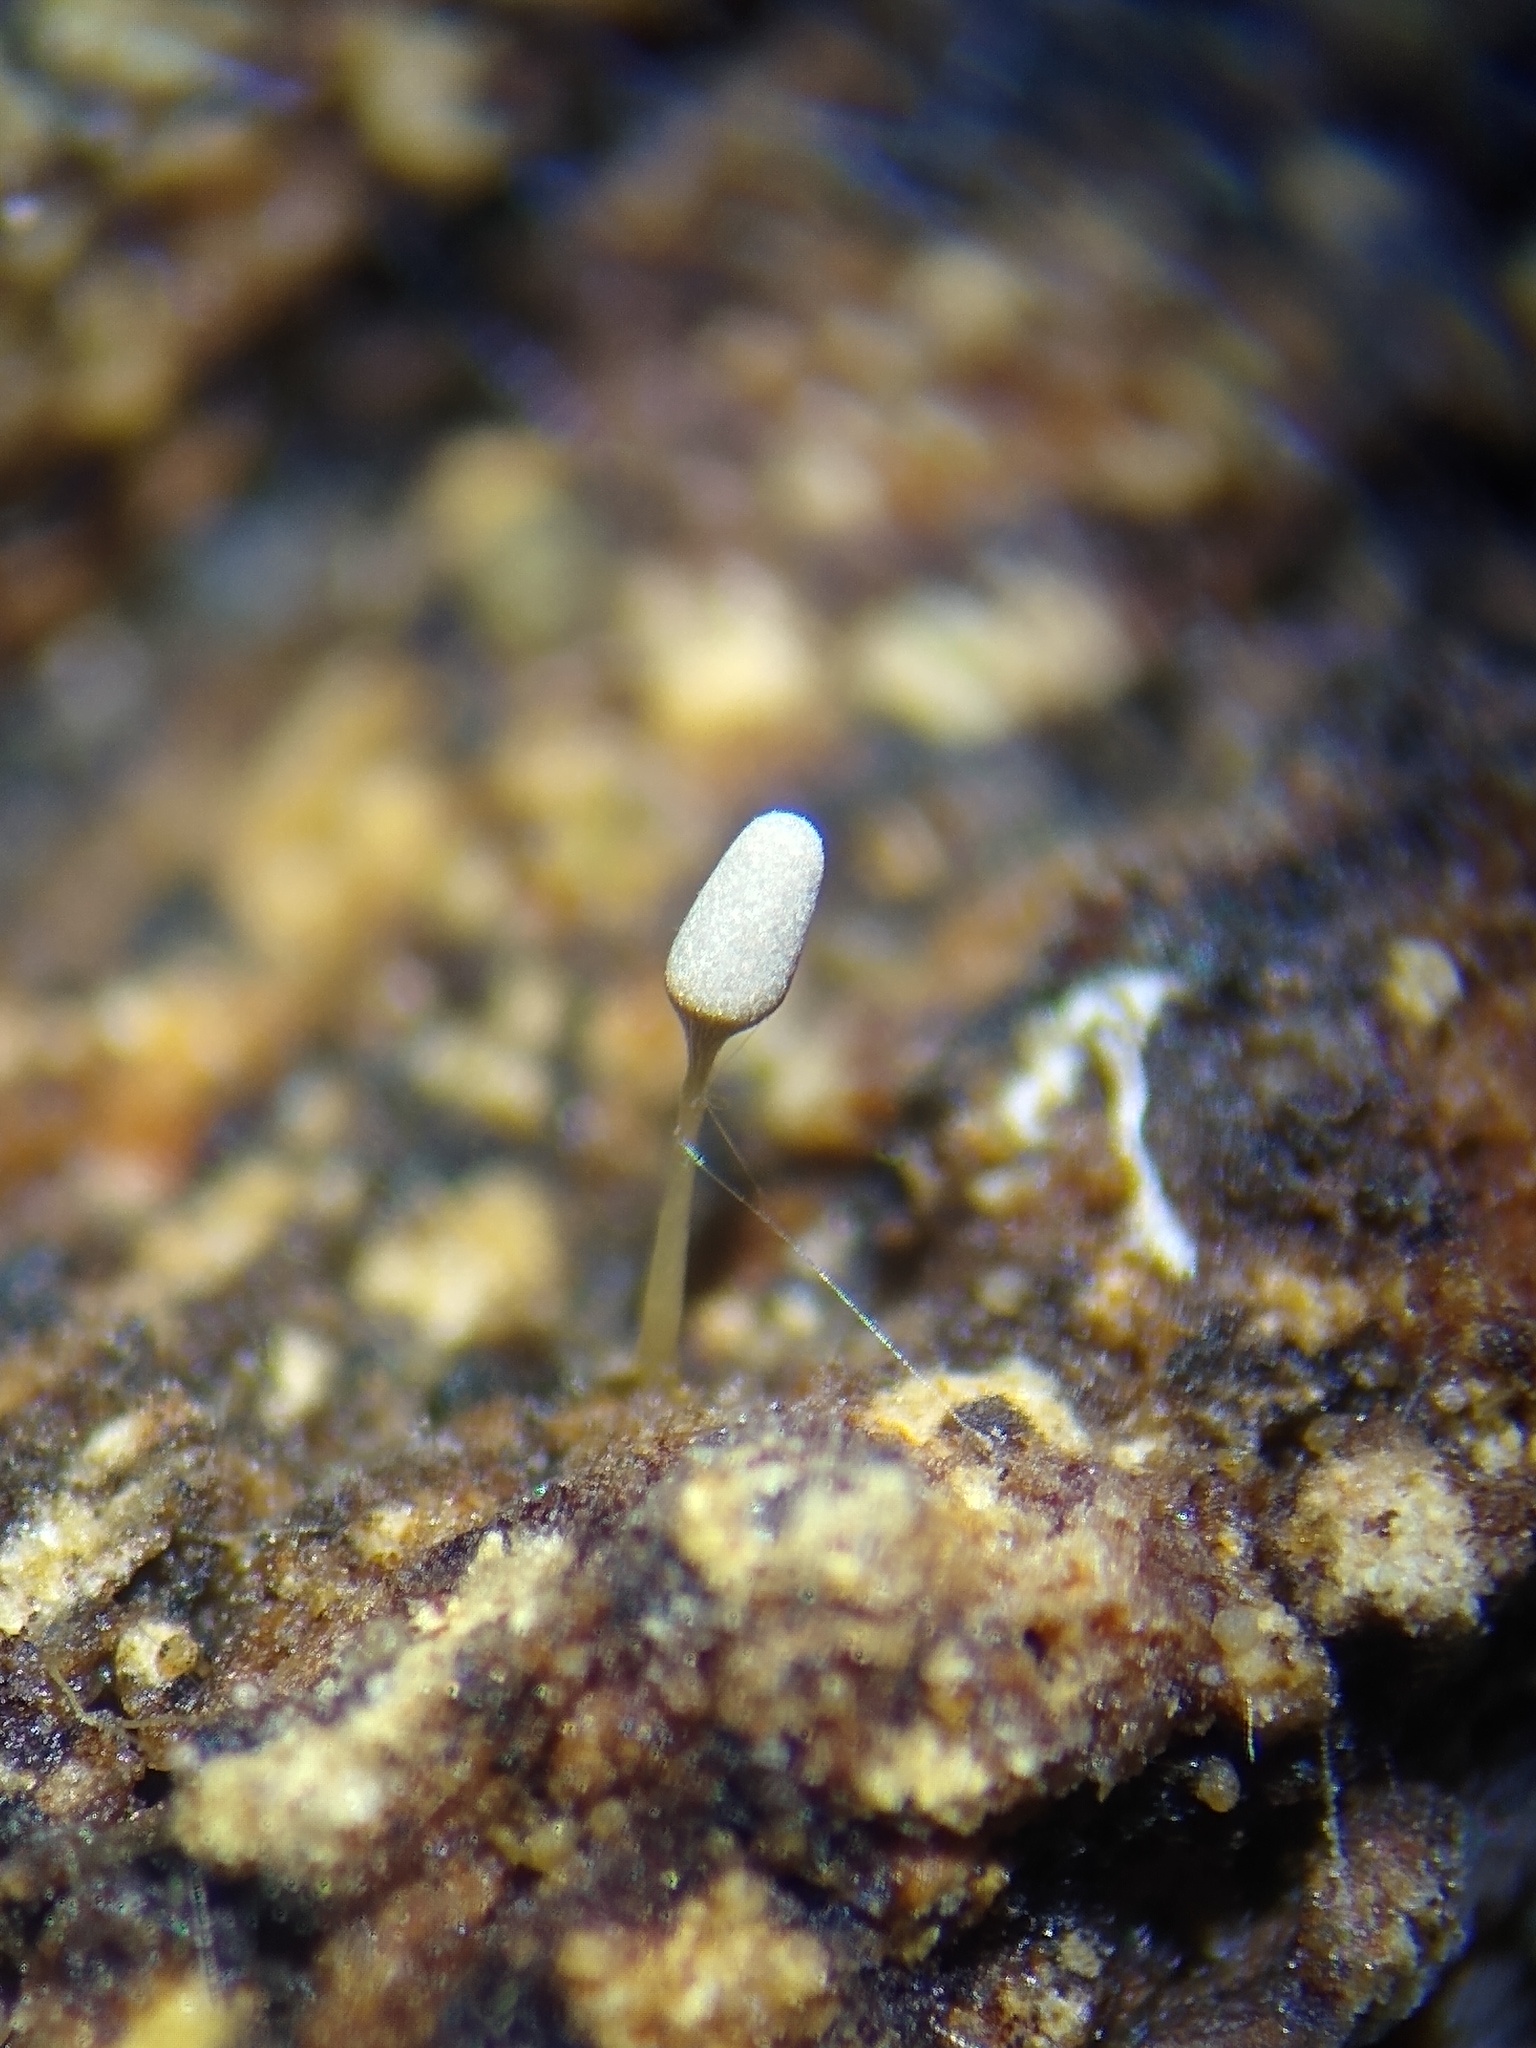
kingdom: Protozoa
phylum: Mycetozoa
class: Myxomycetes
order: Trichiales
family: Arcyriaceae
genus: Arcyria
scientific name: Arcyria cinerea
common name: White carnival candy slime mold
